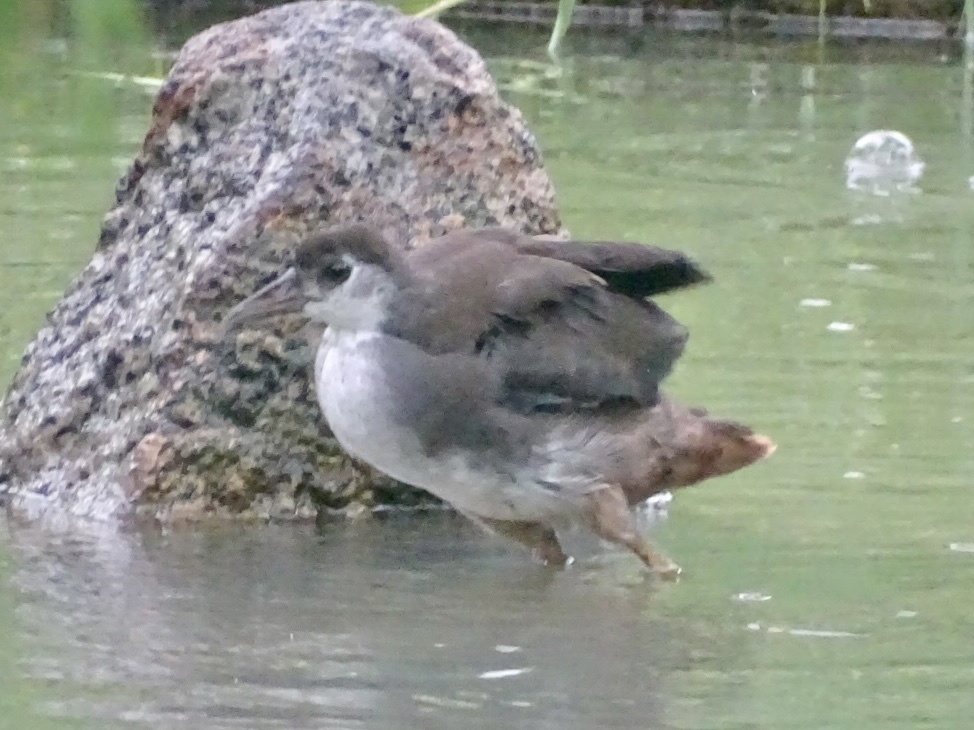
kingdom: Animalia
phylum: Chordata
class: Aves
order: Gruiformes
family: Rallidae
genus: Amaurornis
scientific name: Amaurornis phoenicurus
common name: White-breasted waterhen
